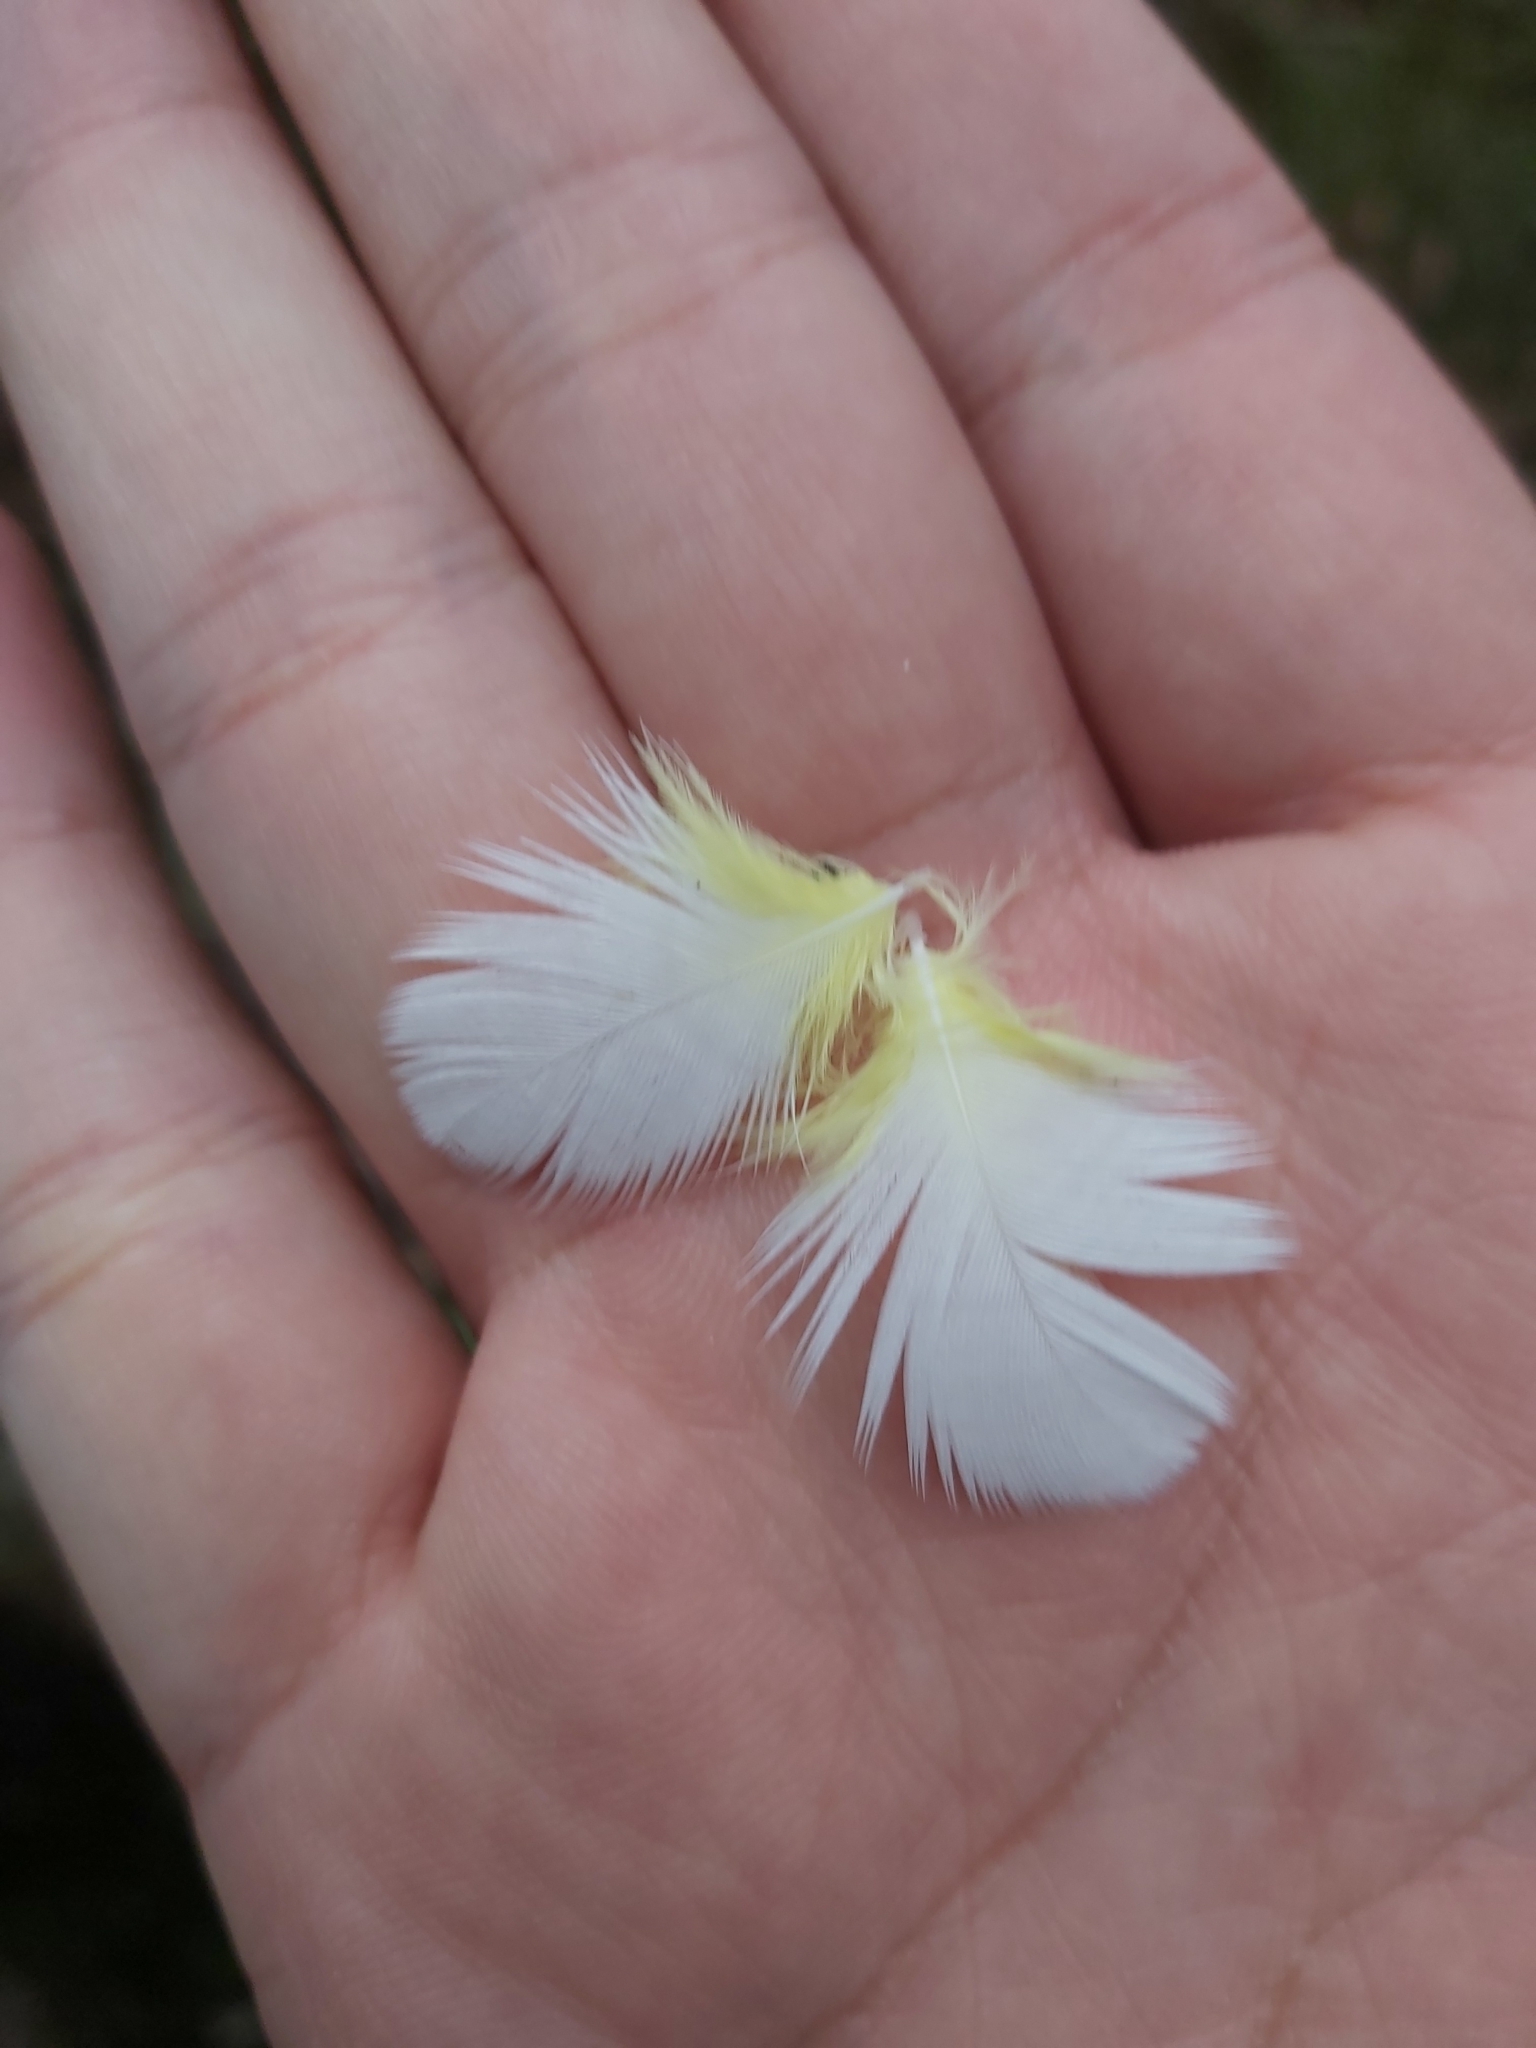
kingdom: Animalia
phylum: Chordata
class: Aves
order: Psittaciformes
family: Psittacidae
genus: Cacatua
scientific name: Cacatua galerita
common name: Sulphur-crested cockatoo
